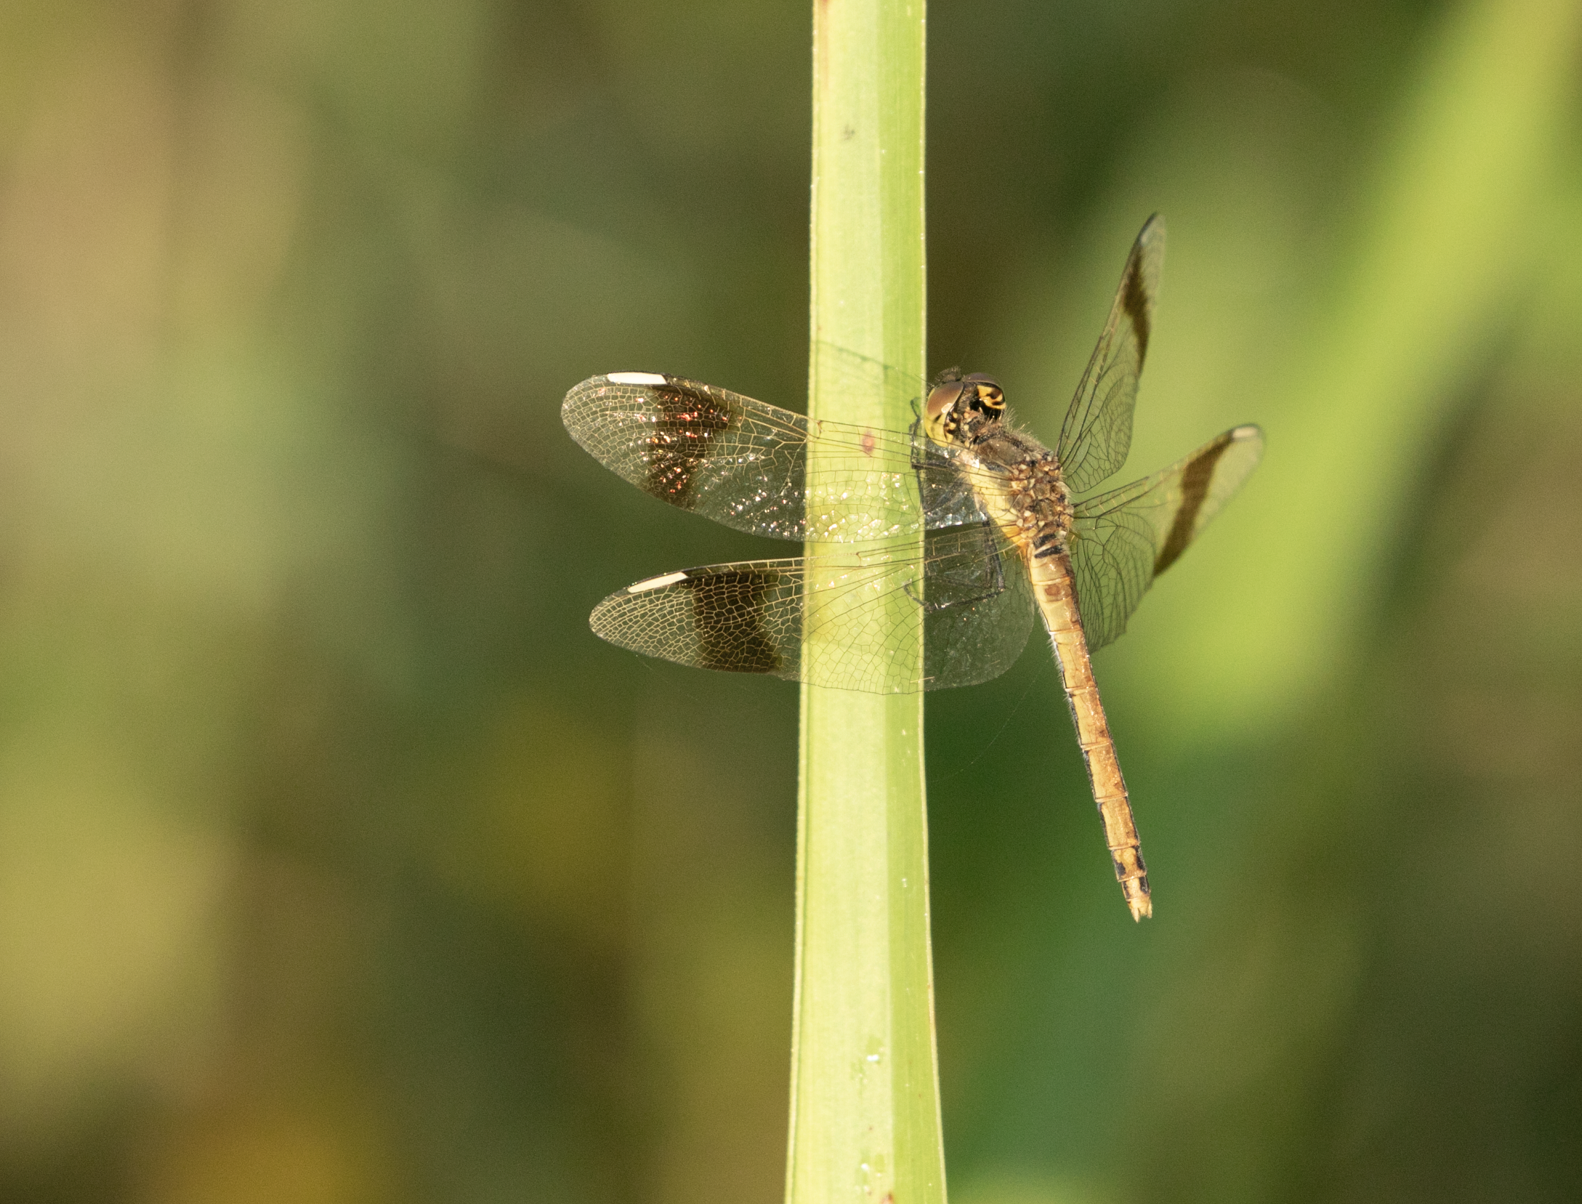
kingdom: Animalia
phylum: Arthropoda
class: Insecta
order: Odonata
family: Libellulidae
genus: Sympetrum
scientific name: Sympetrum pedemontanum
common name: Banded darter
